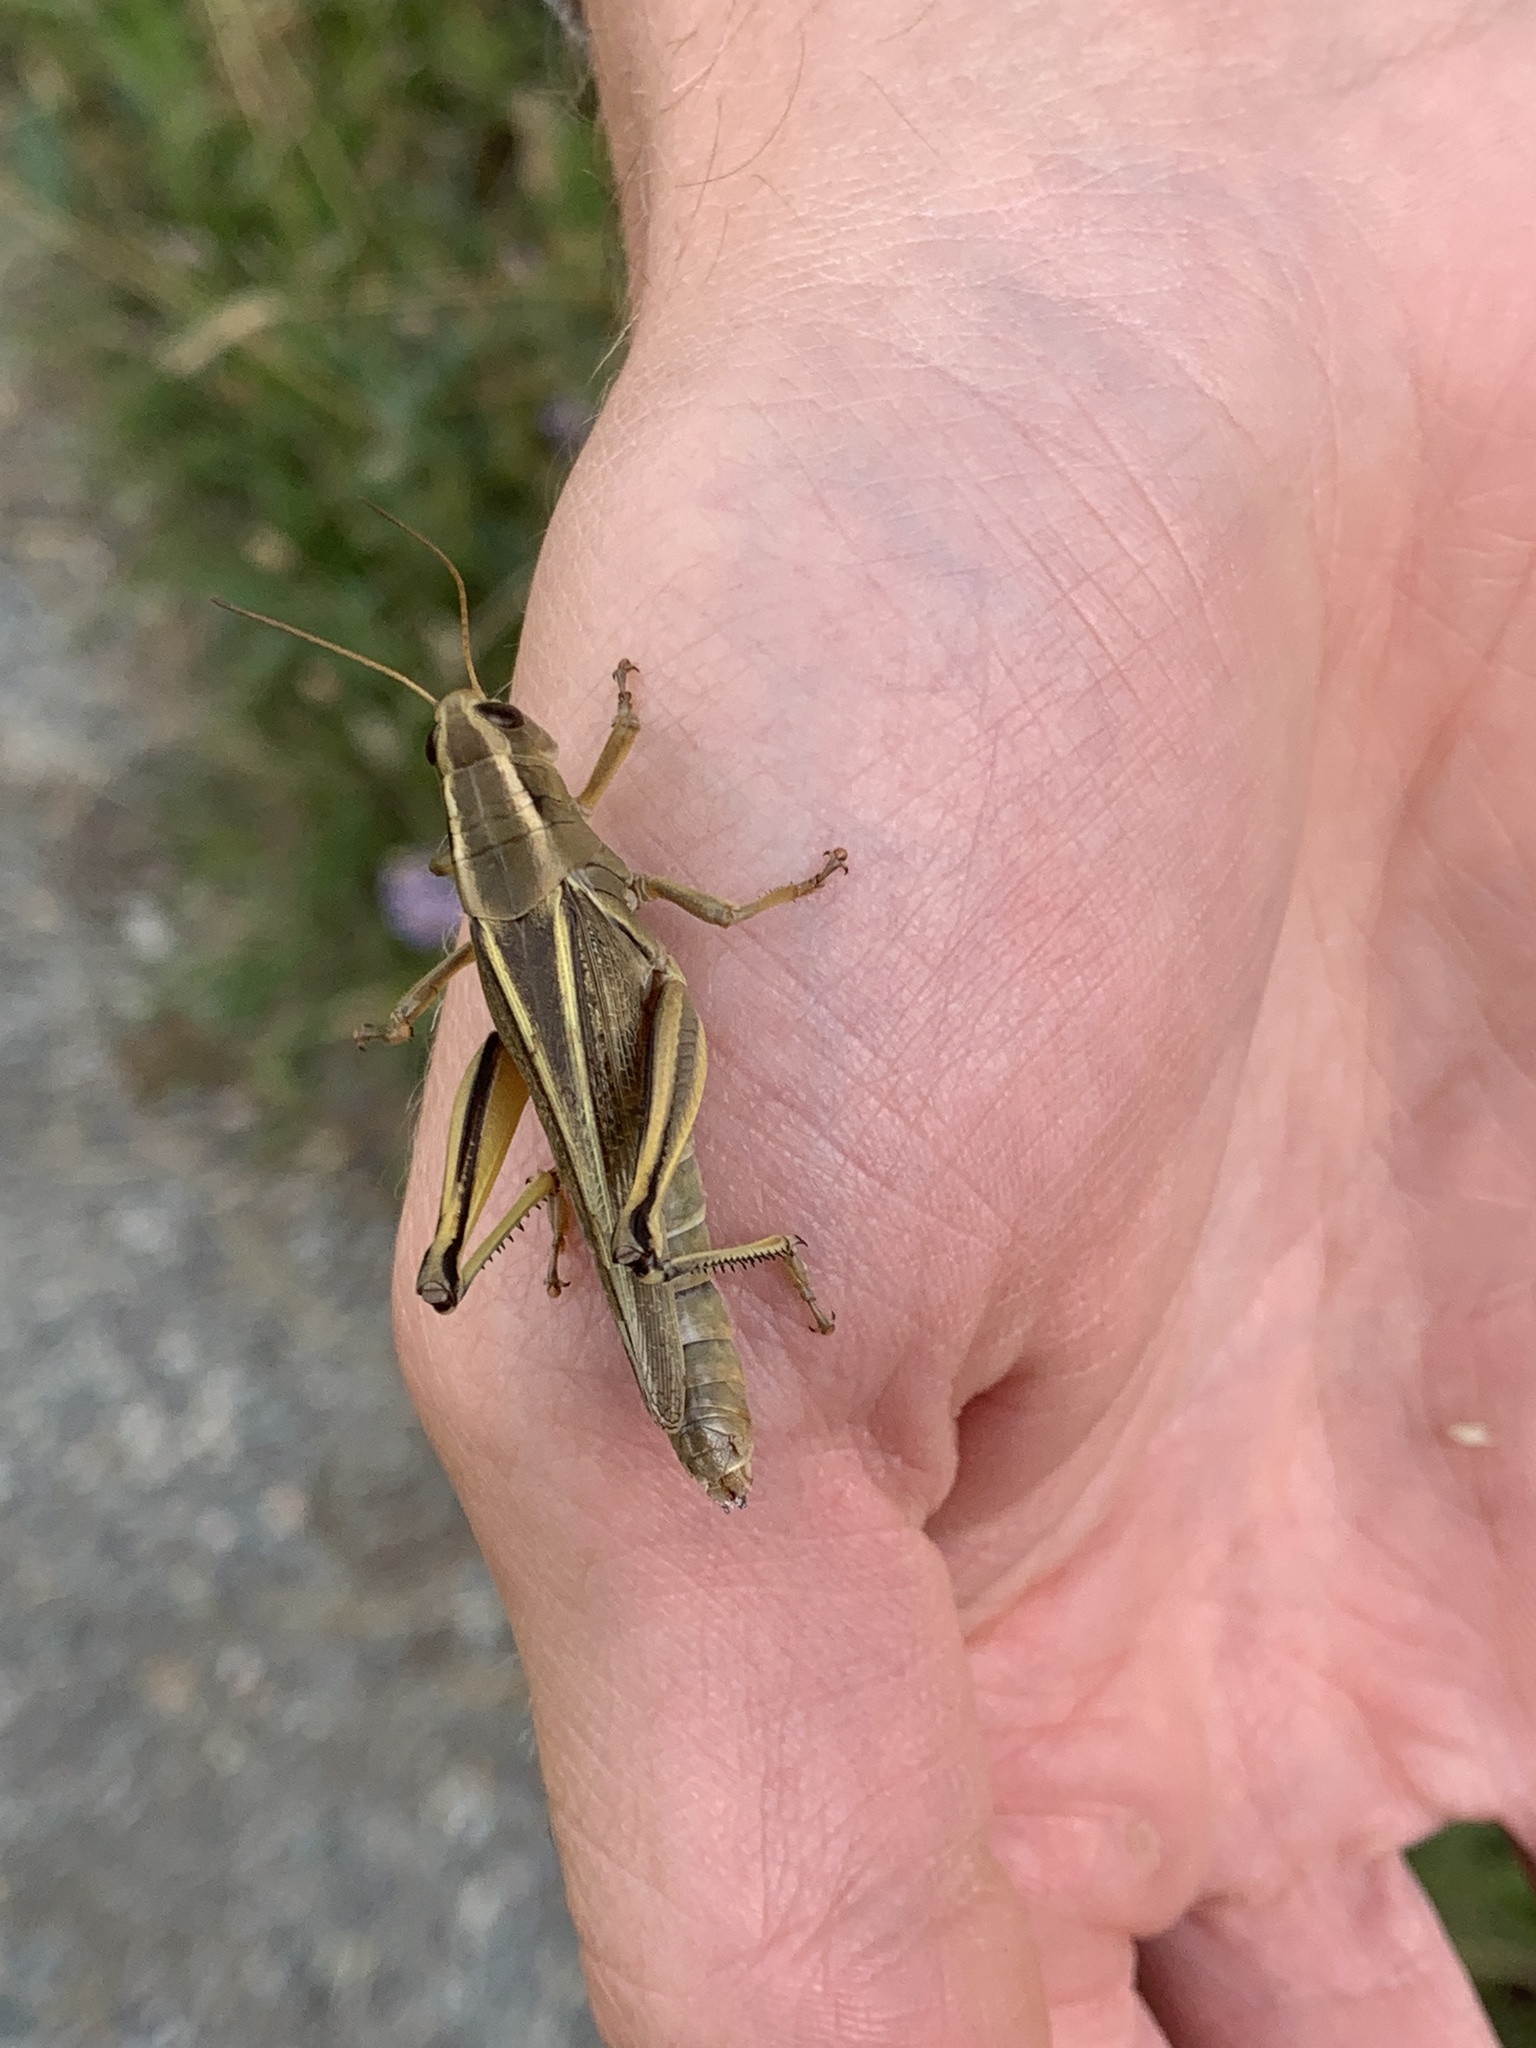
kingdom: Animalia
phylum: Arthropoda
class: Insecta
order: Orthoptera
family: Acrididae
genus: Melanoplus
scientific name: Melanoplus bivittatus
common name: Two-striped grasshopper
